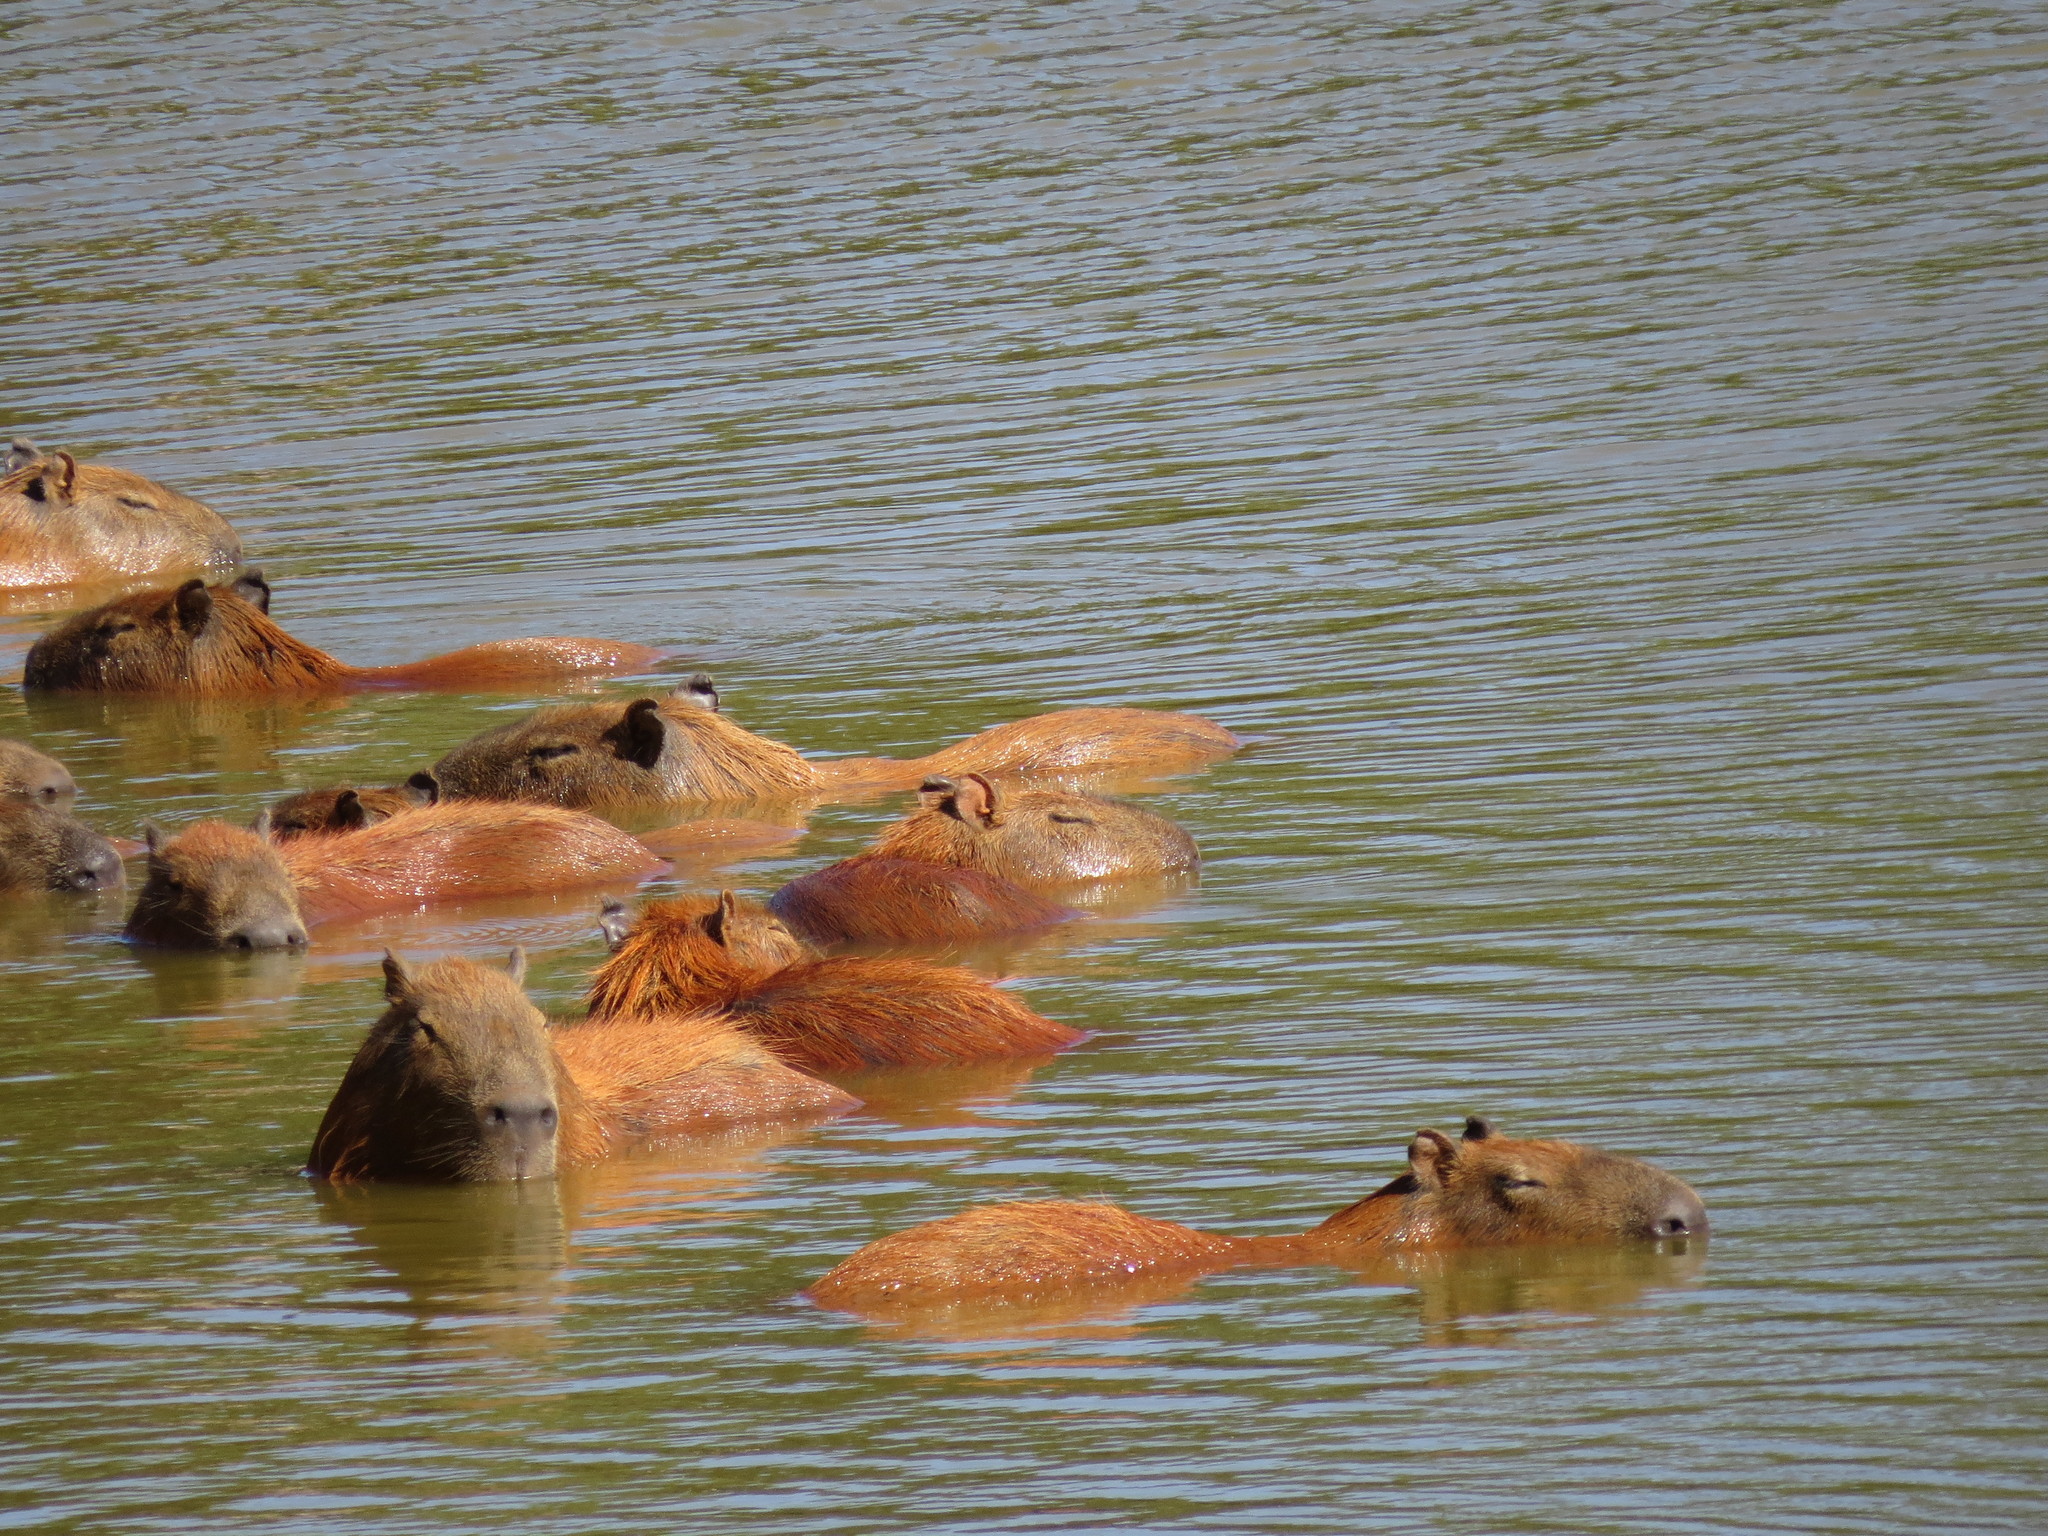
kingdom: Animalia
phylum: Chordata
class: Mammalia
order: Rodentia
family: Caviidae
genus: Hydrochoerus
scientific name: Hydrochoerus hydrochaeris
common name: Capybara
